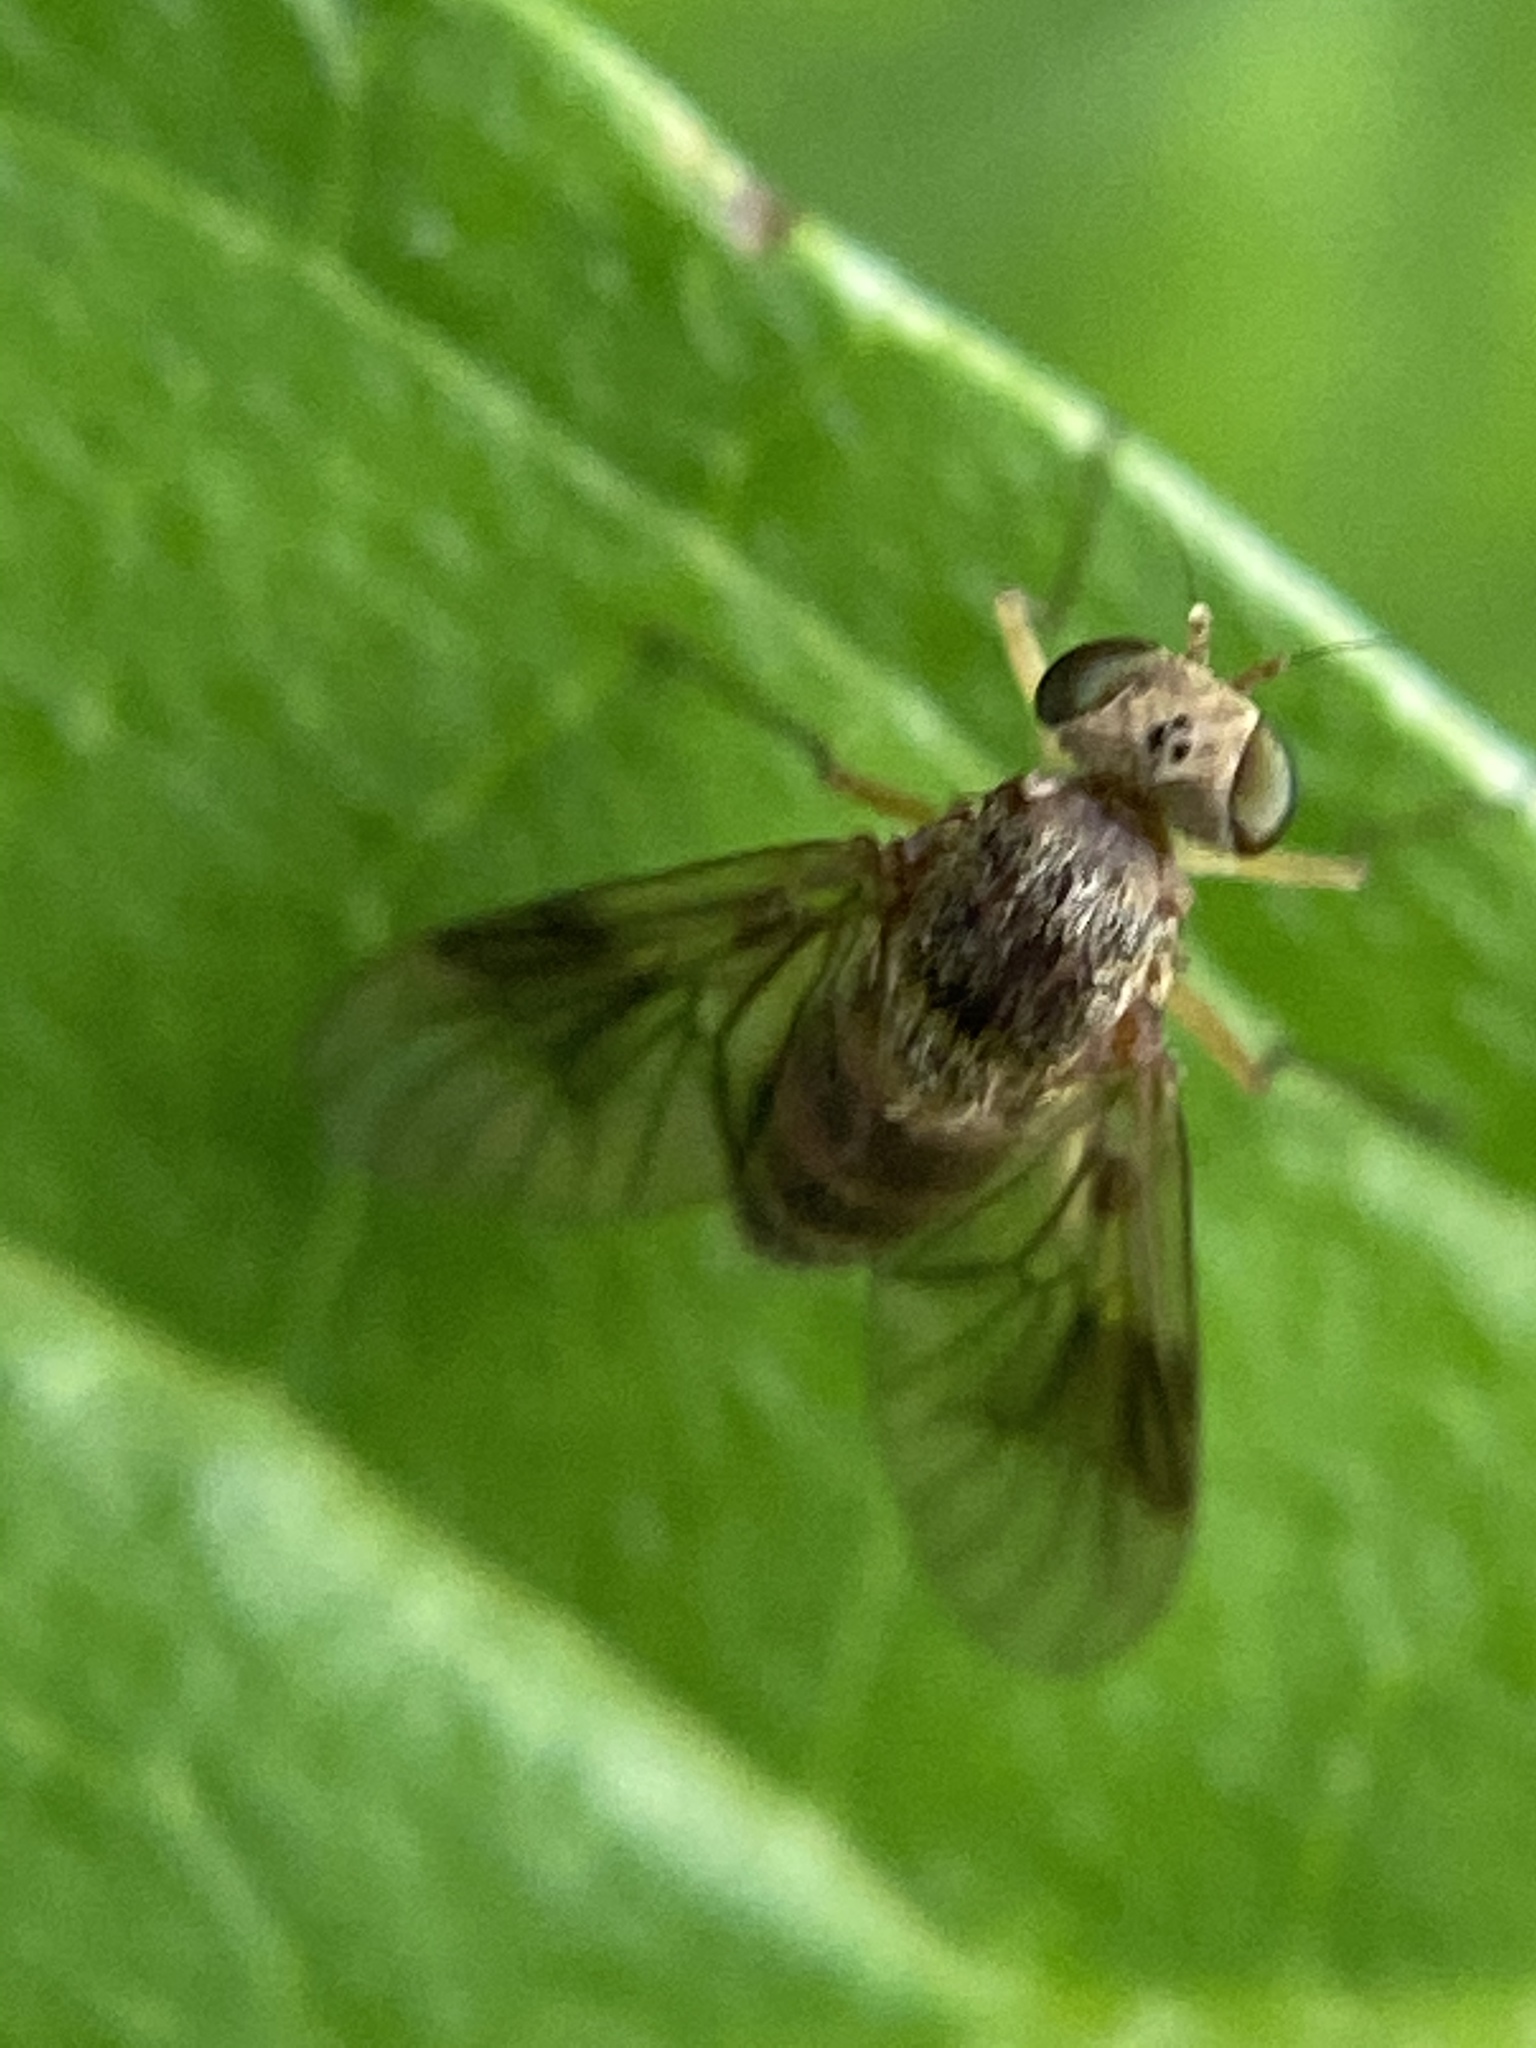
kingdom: Animalia
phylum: Arthropoda
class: Insecta
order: Diptera
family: Rhagionidae
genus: Chrysopilus
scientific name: Chrysopilus quadratus
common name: Quadrate snipe fly
